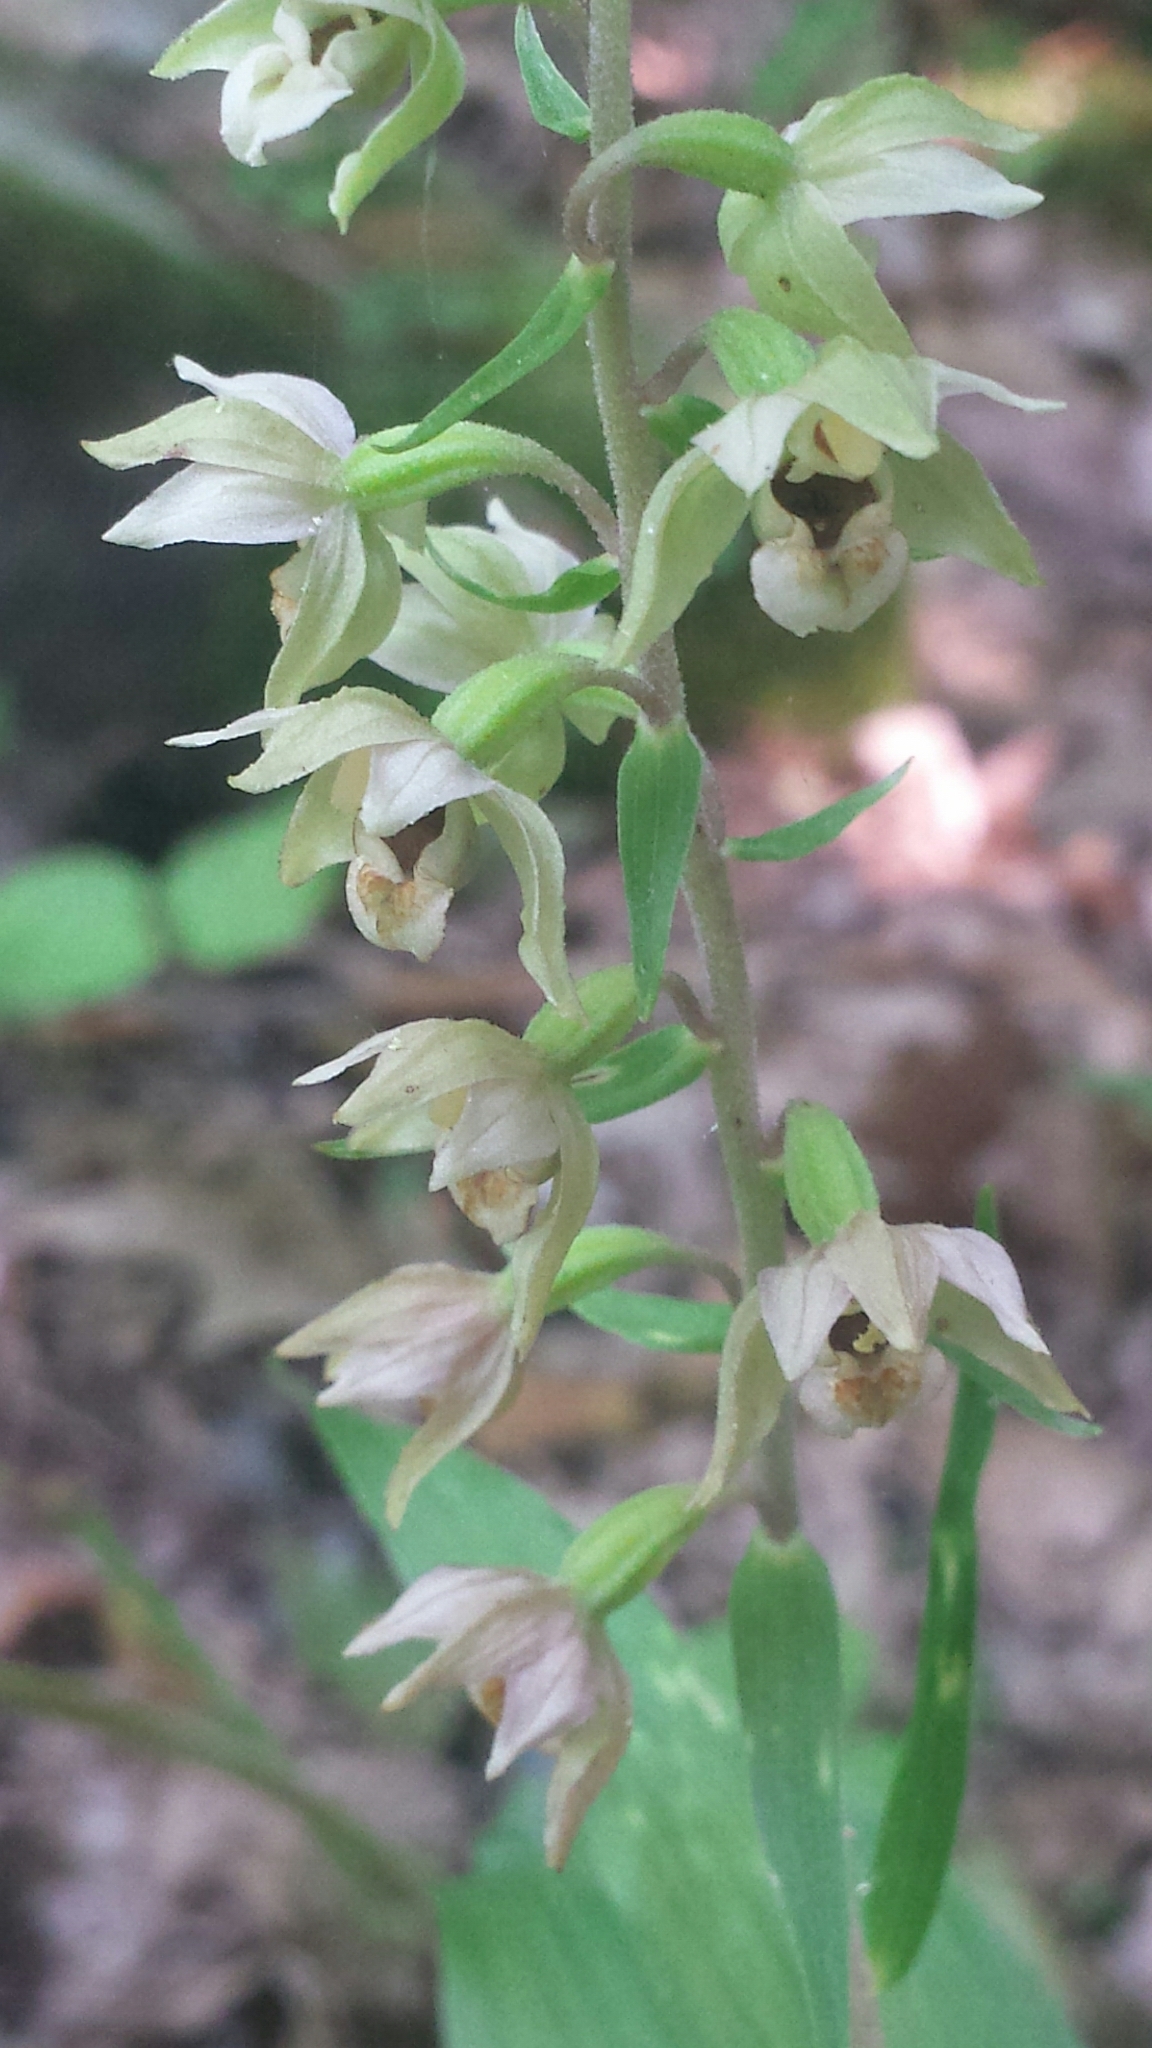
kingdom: Plantae
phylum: Tracheophyta
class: Liliopsida
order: Asparagales
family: Orchidaceae
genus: Epipactis
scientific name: Epipactis helleborine
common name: Broad-leaved helleborine
